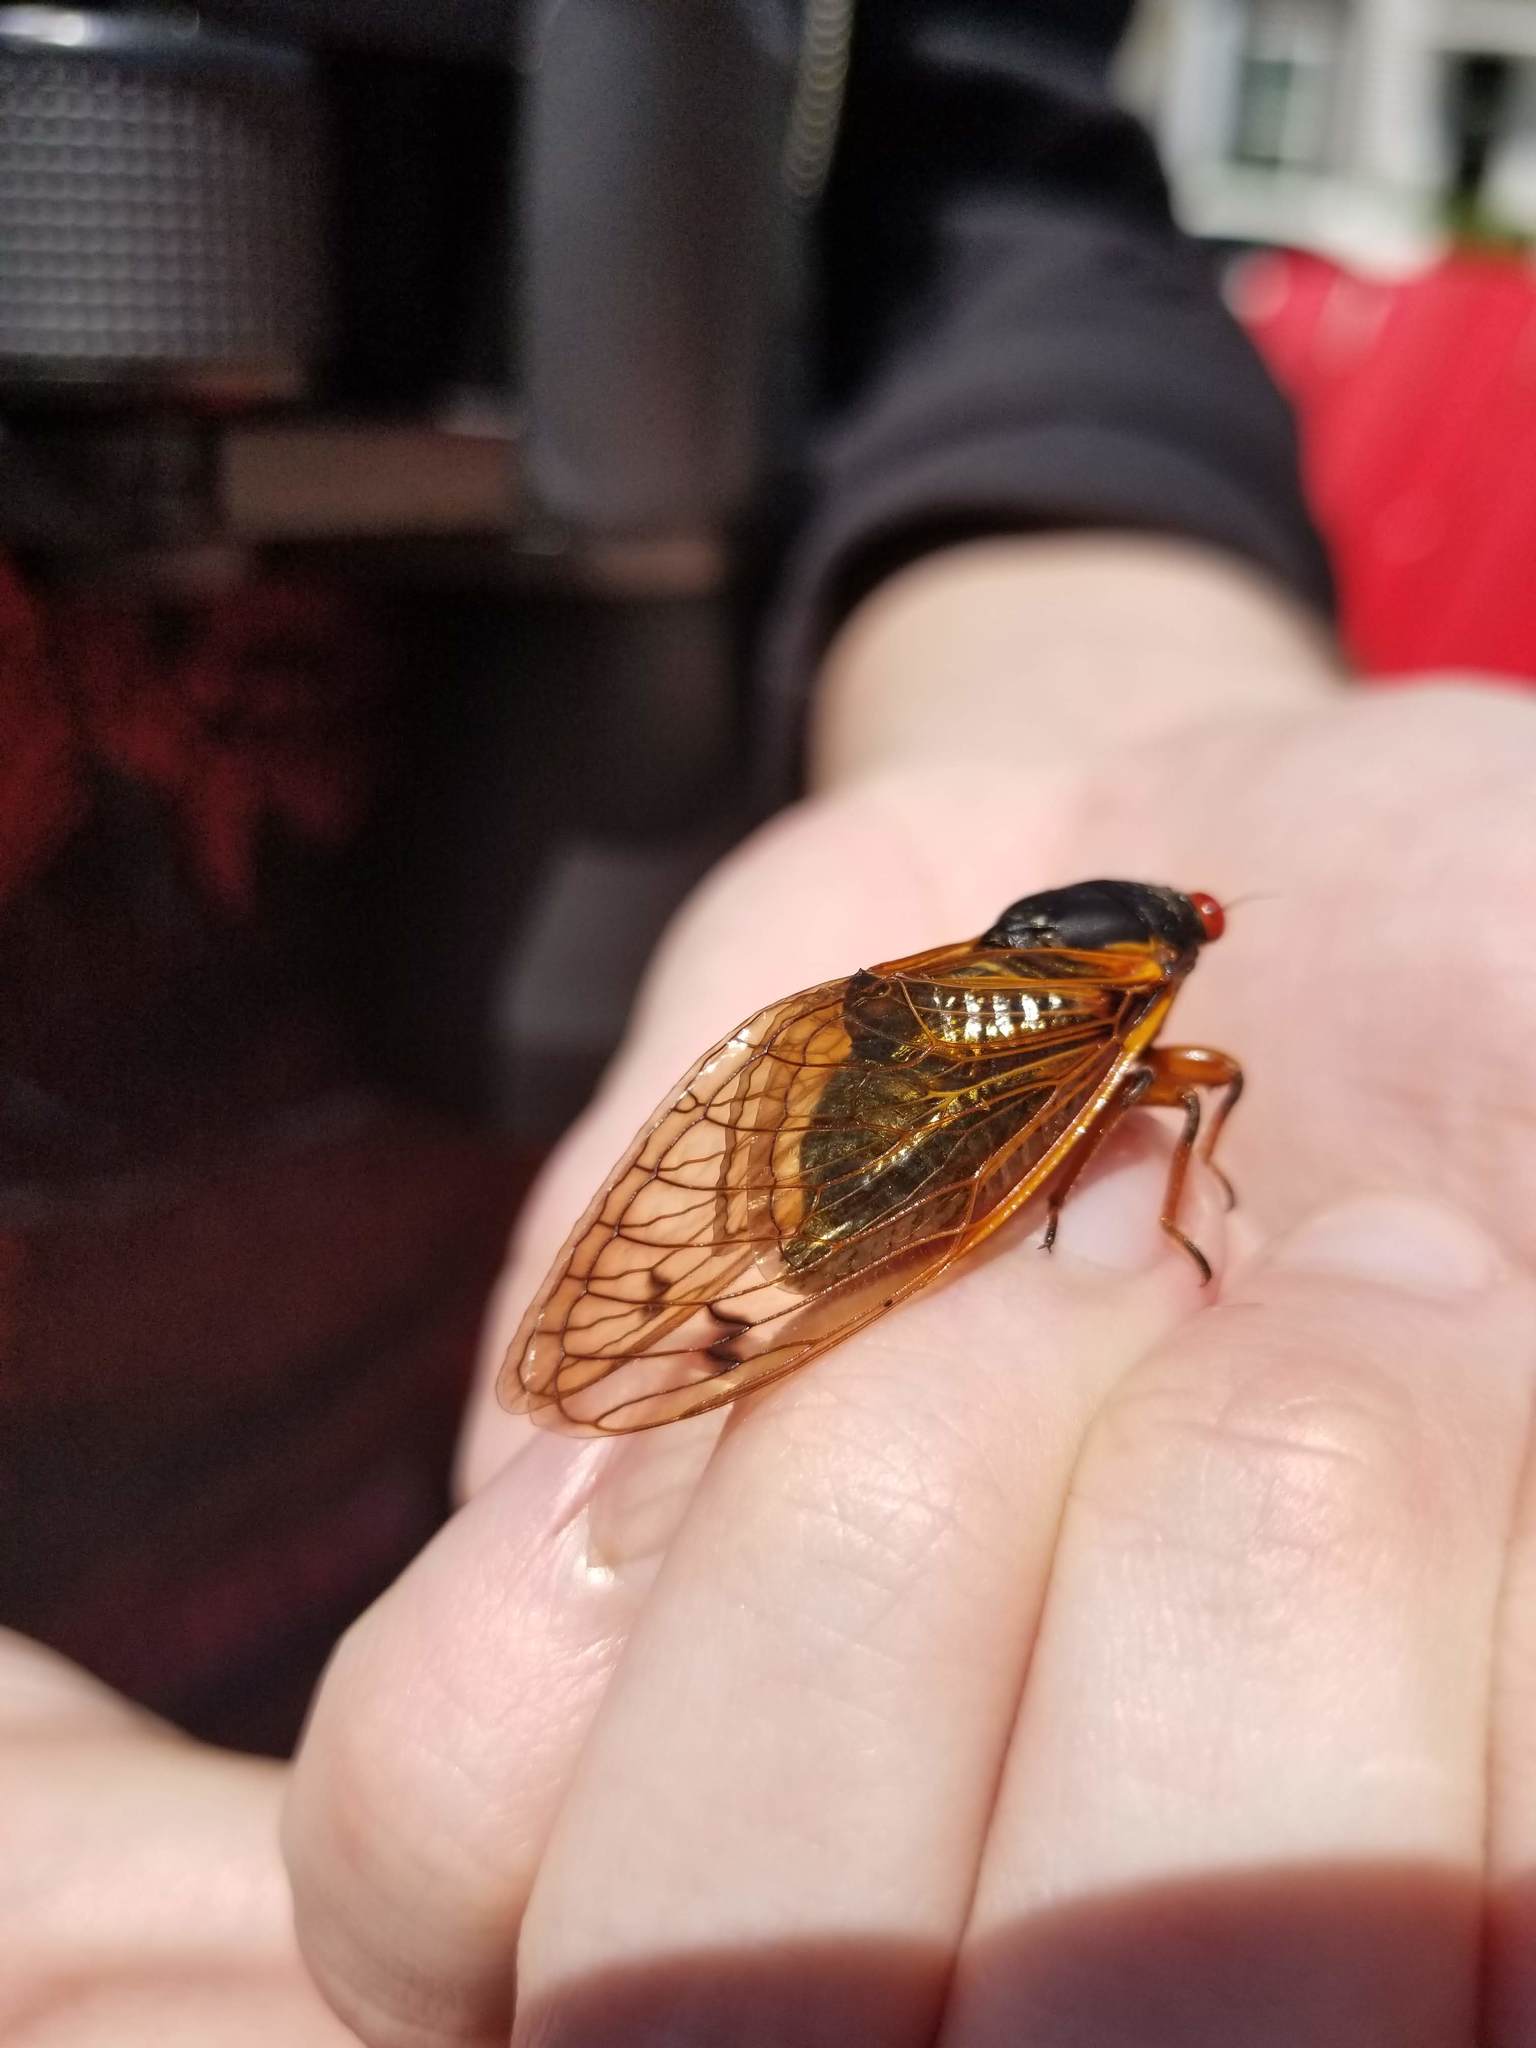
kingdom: Animalia
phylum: Arthropoda
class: Insecta
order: Hemiptera
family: Cicadidae
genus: Magicicada
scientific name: Magicicada
